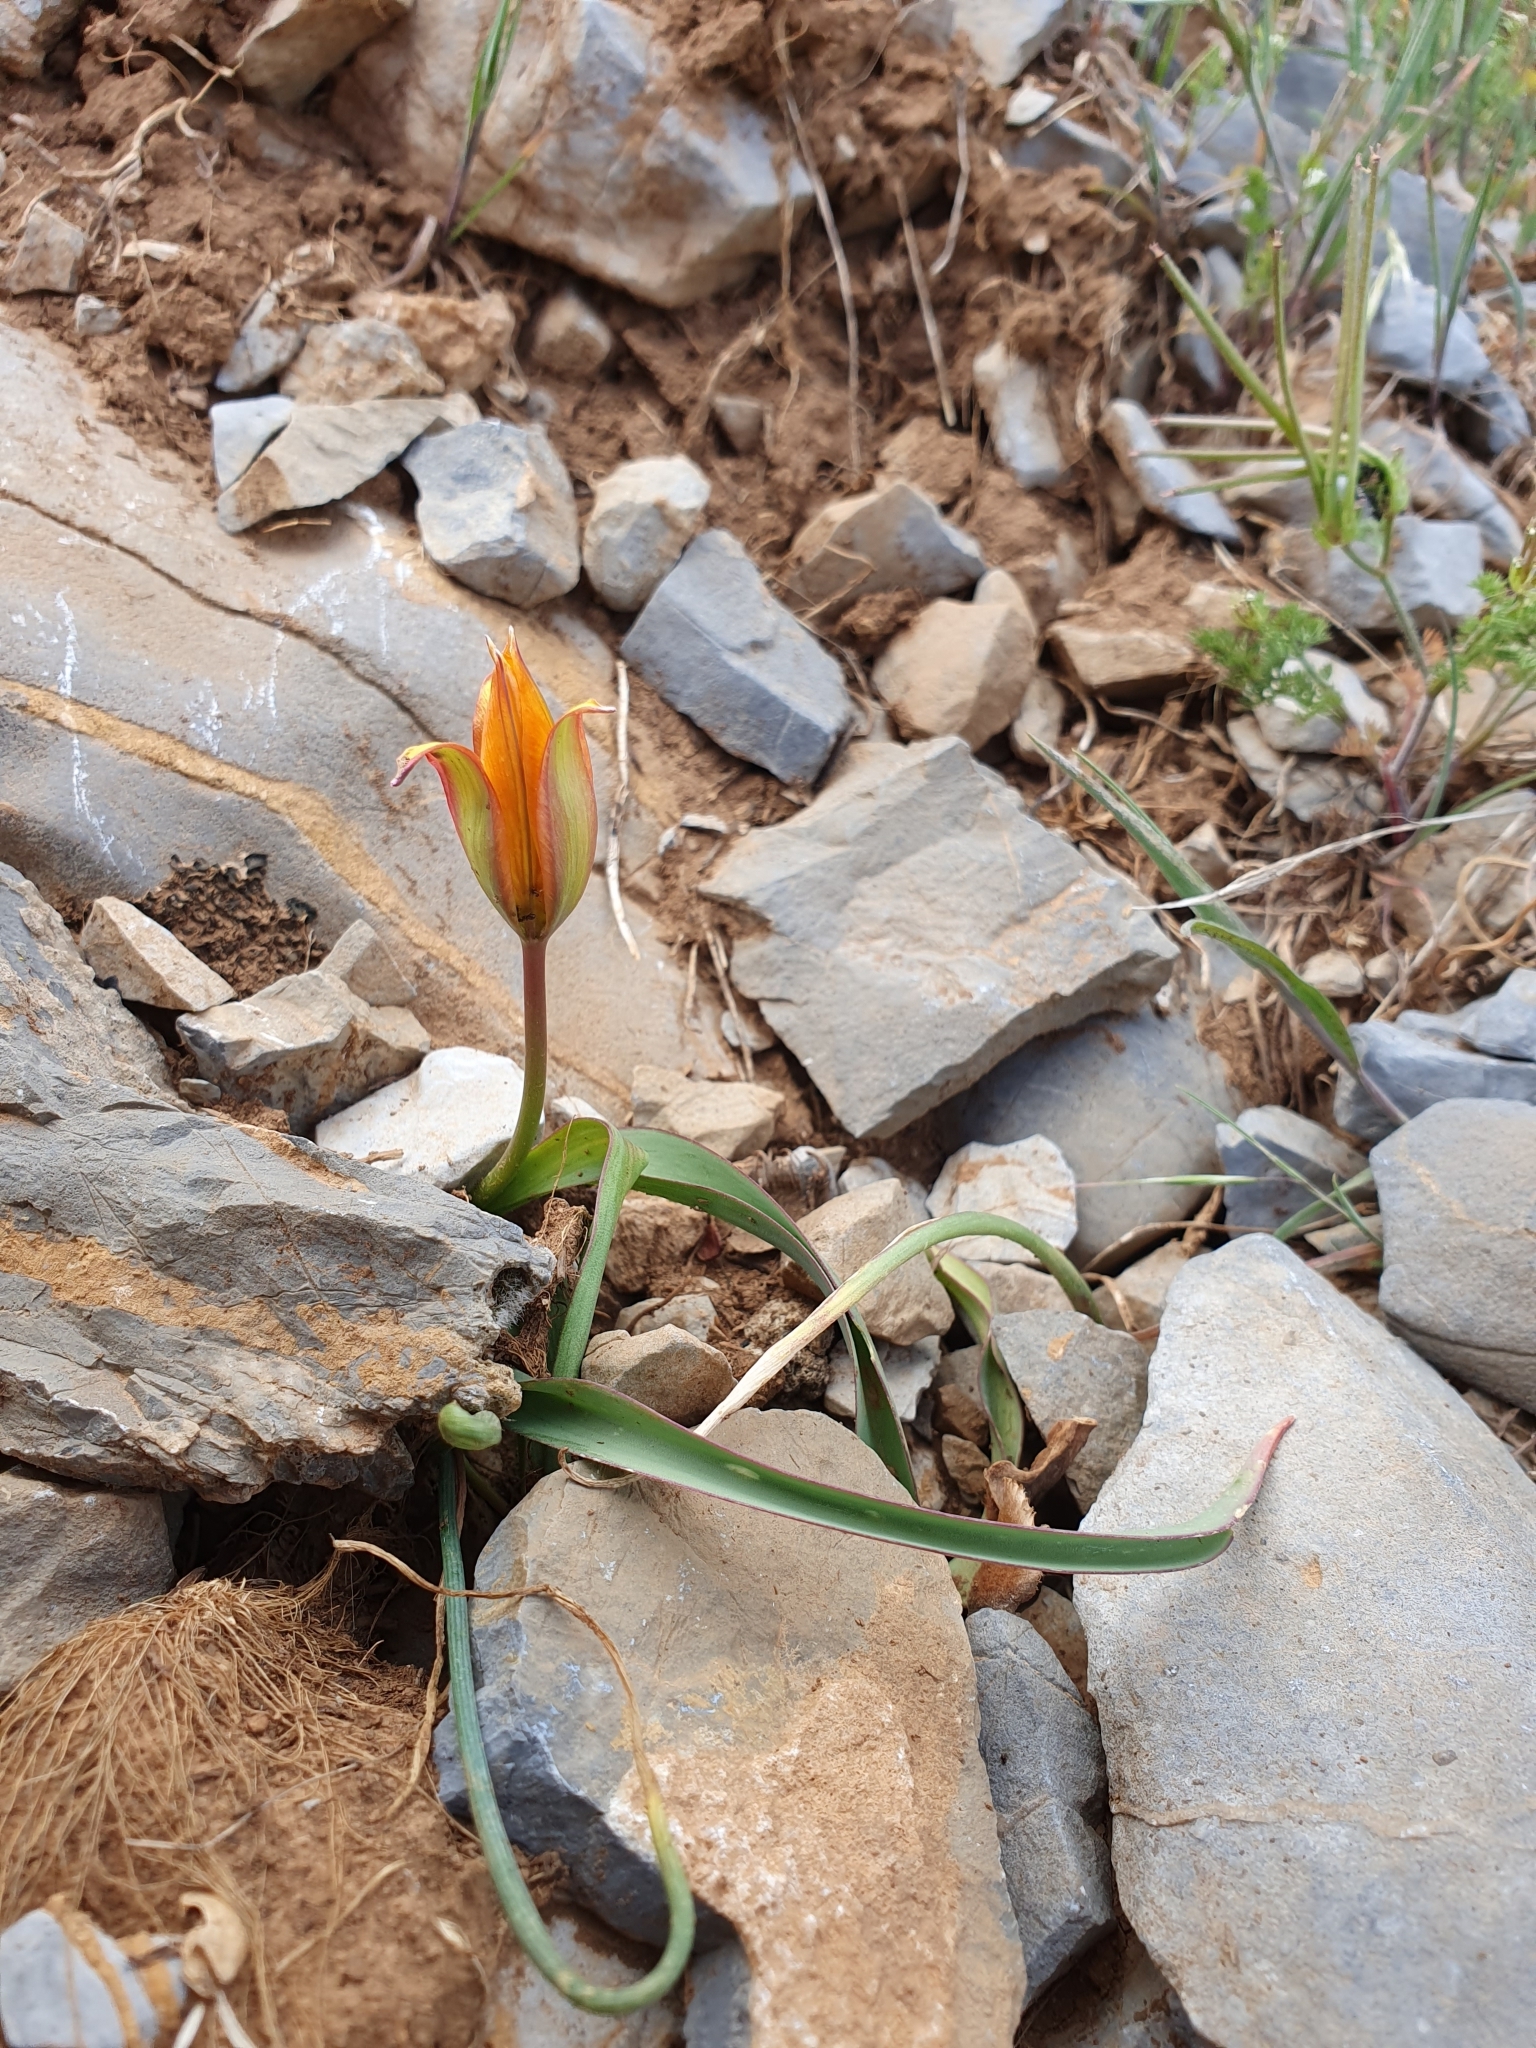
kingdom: Plantae
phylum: Tracheophyta
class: Liliopsida
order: Liliales
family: Liliaceae
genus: Tulipa
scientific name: Tulipa sylvestris
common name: Wild tulip
